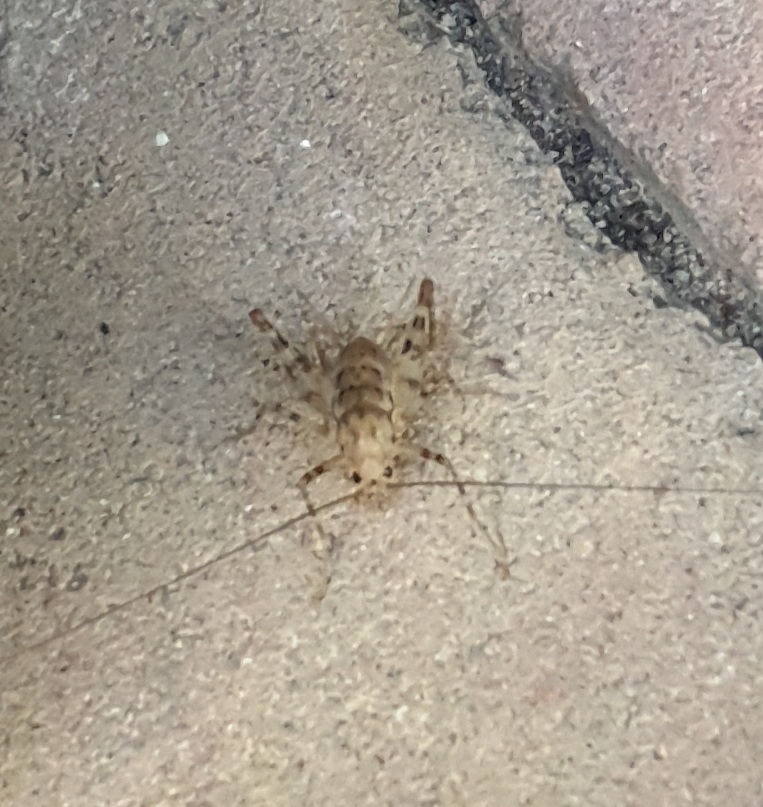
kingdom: Animalia
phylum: Arthropoda
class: Insecta
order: Orthoptera
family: Rhaphidophoridae
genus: Tachycines
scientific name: Tachycines asynamorus
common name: Greenhouse camel cricket
